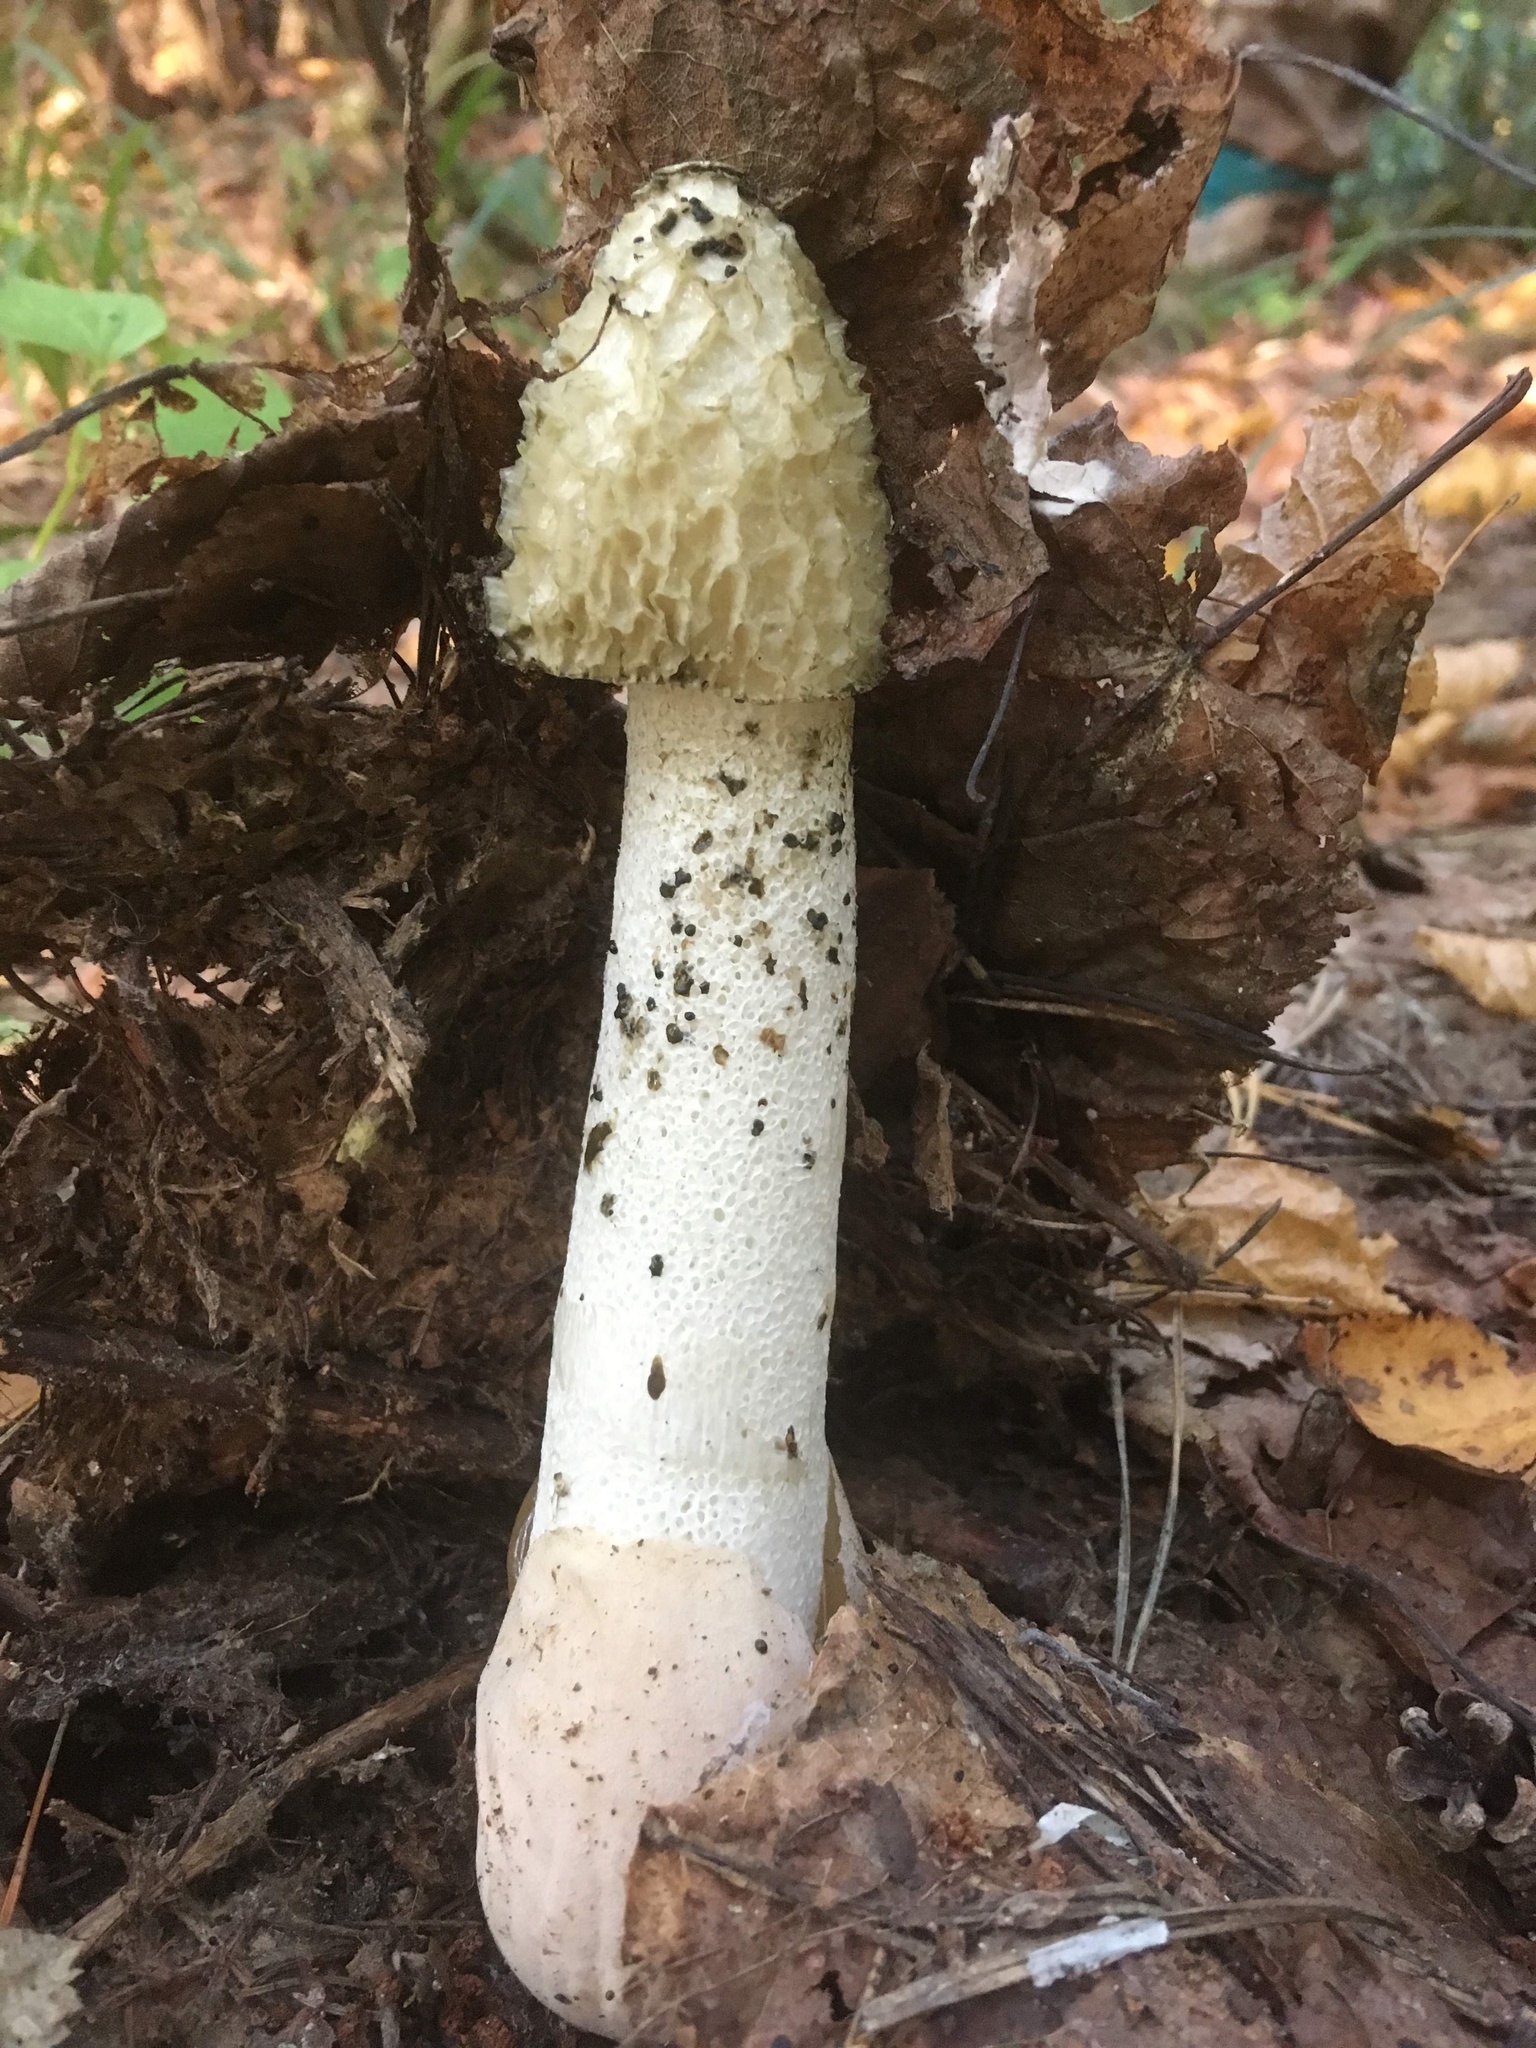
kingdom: Fungi
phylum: Basidiomycota
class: Agaricomycetes
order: Phallales
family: Phallaceae
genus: Phallus
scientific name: Phallus impudicus
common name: Common stinkhorn
